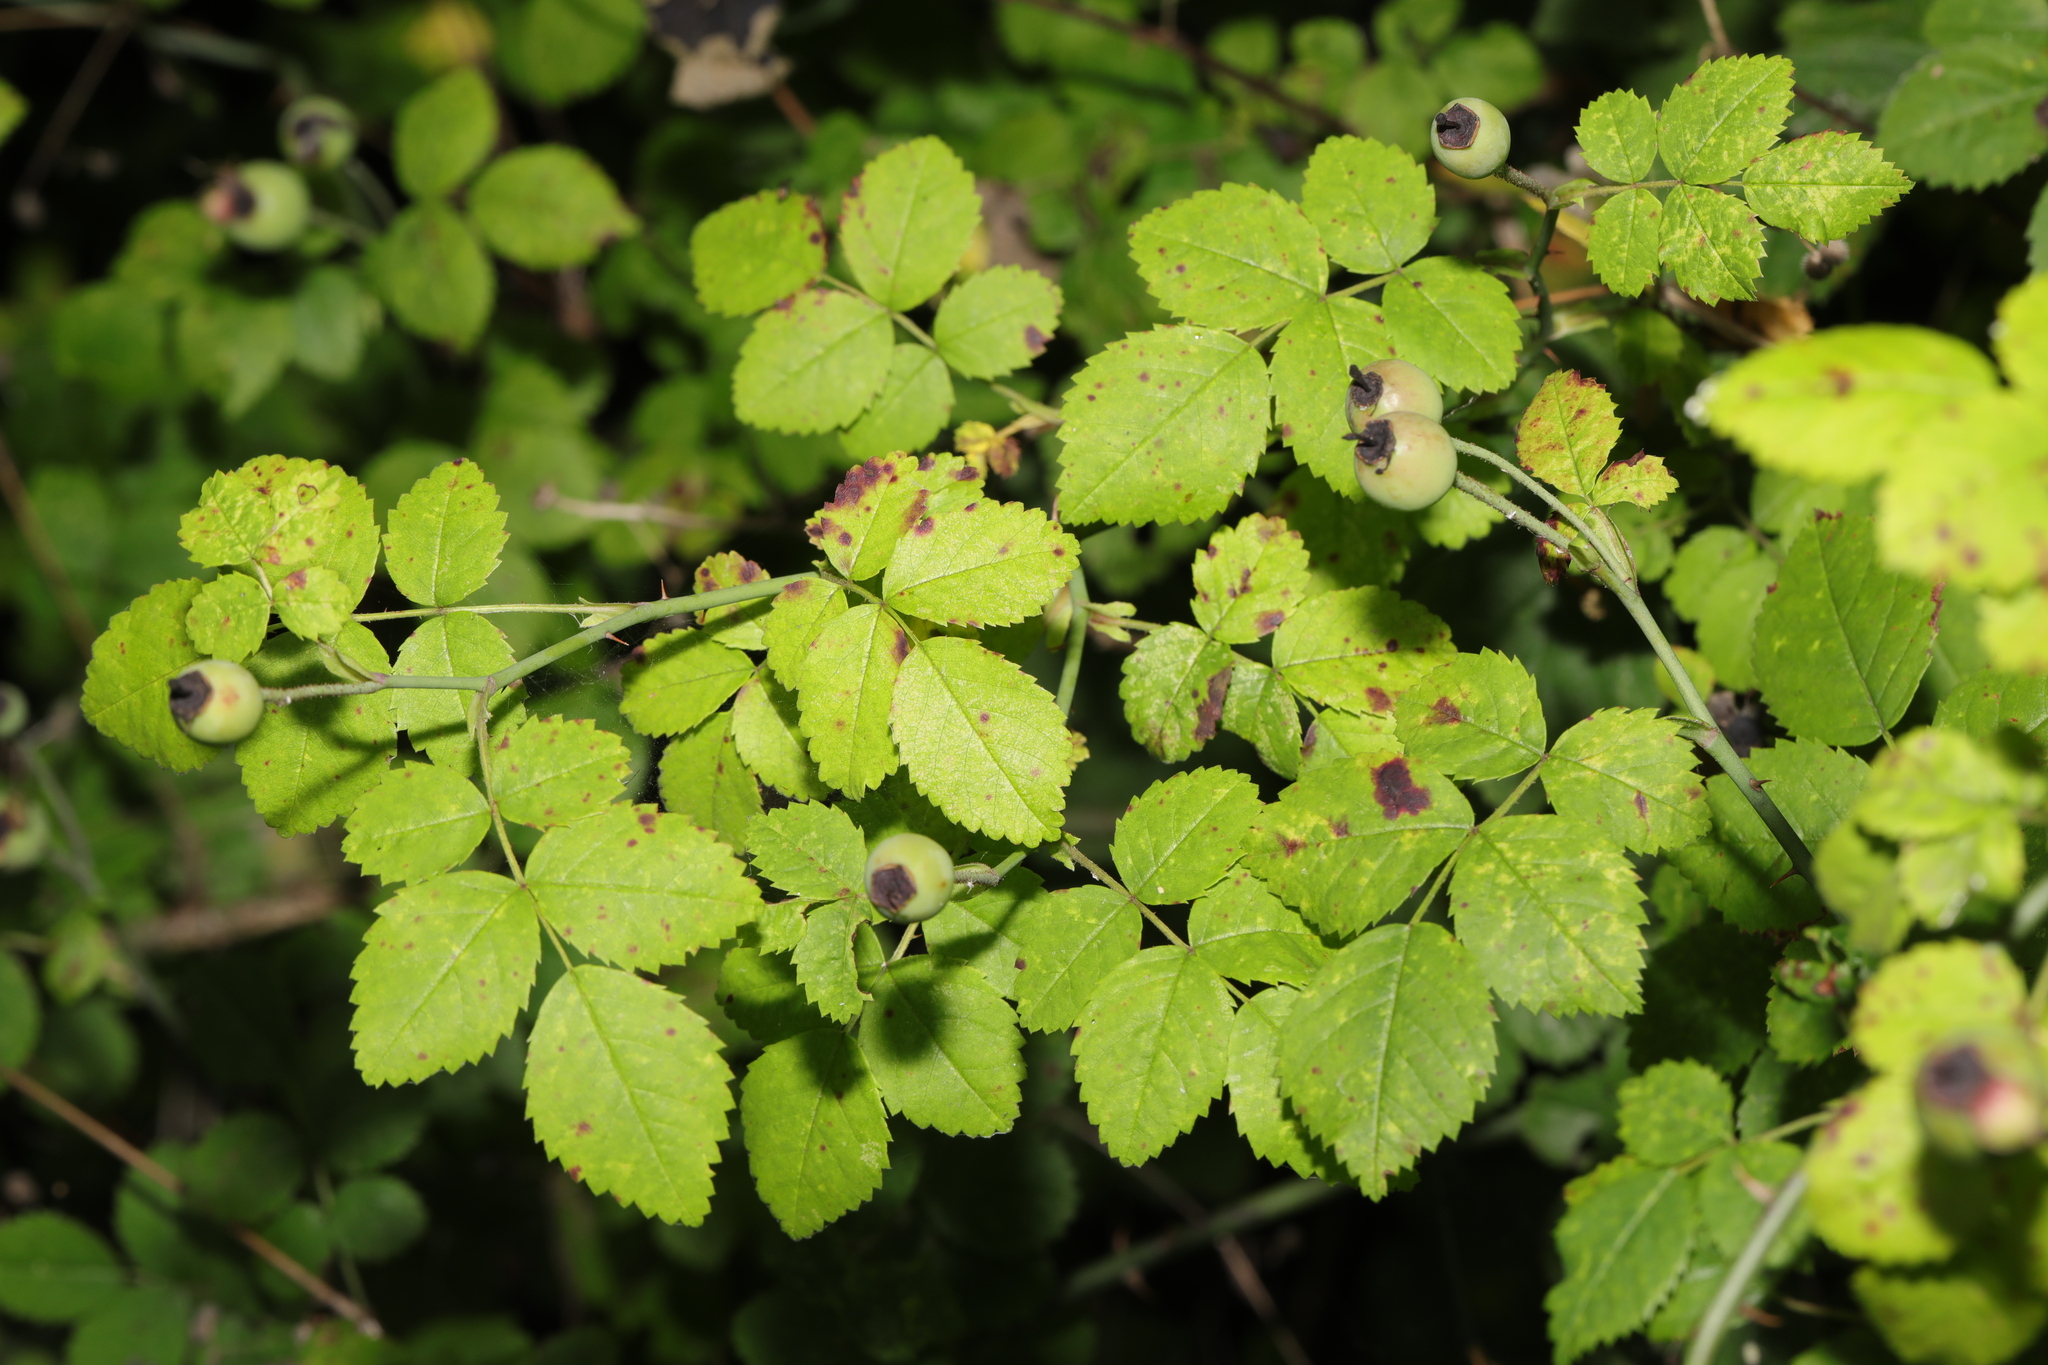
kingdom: Plantae
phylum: Tracheophyta
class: Magnoliopsida
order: Rosales
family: Rosaceae
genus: Rosa
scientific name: Rosa arvensis
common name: Field rose
